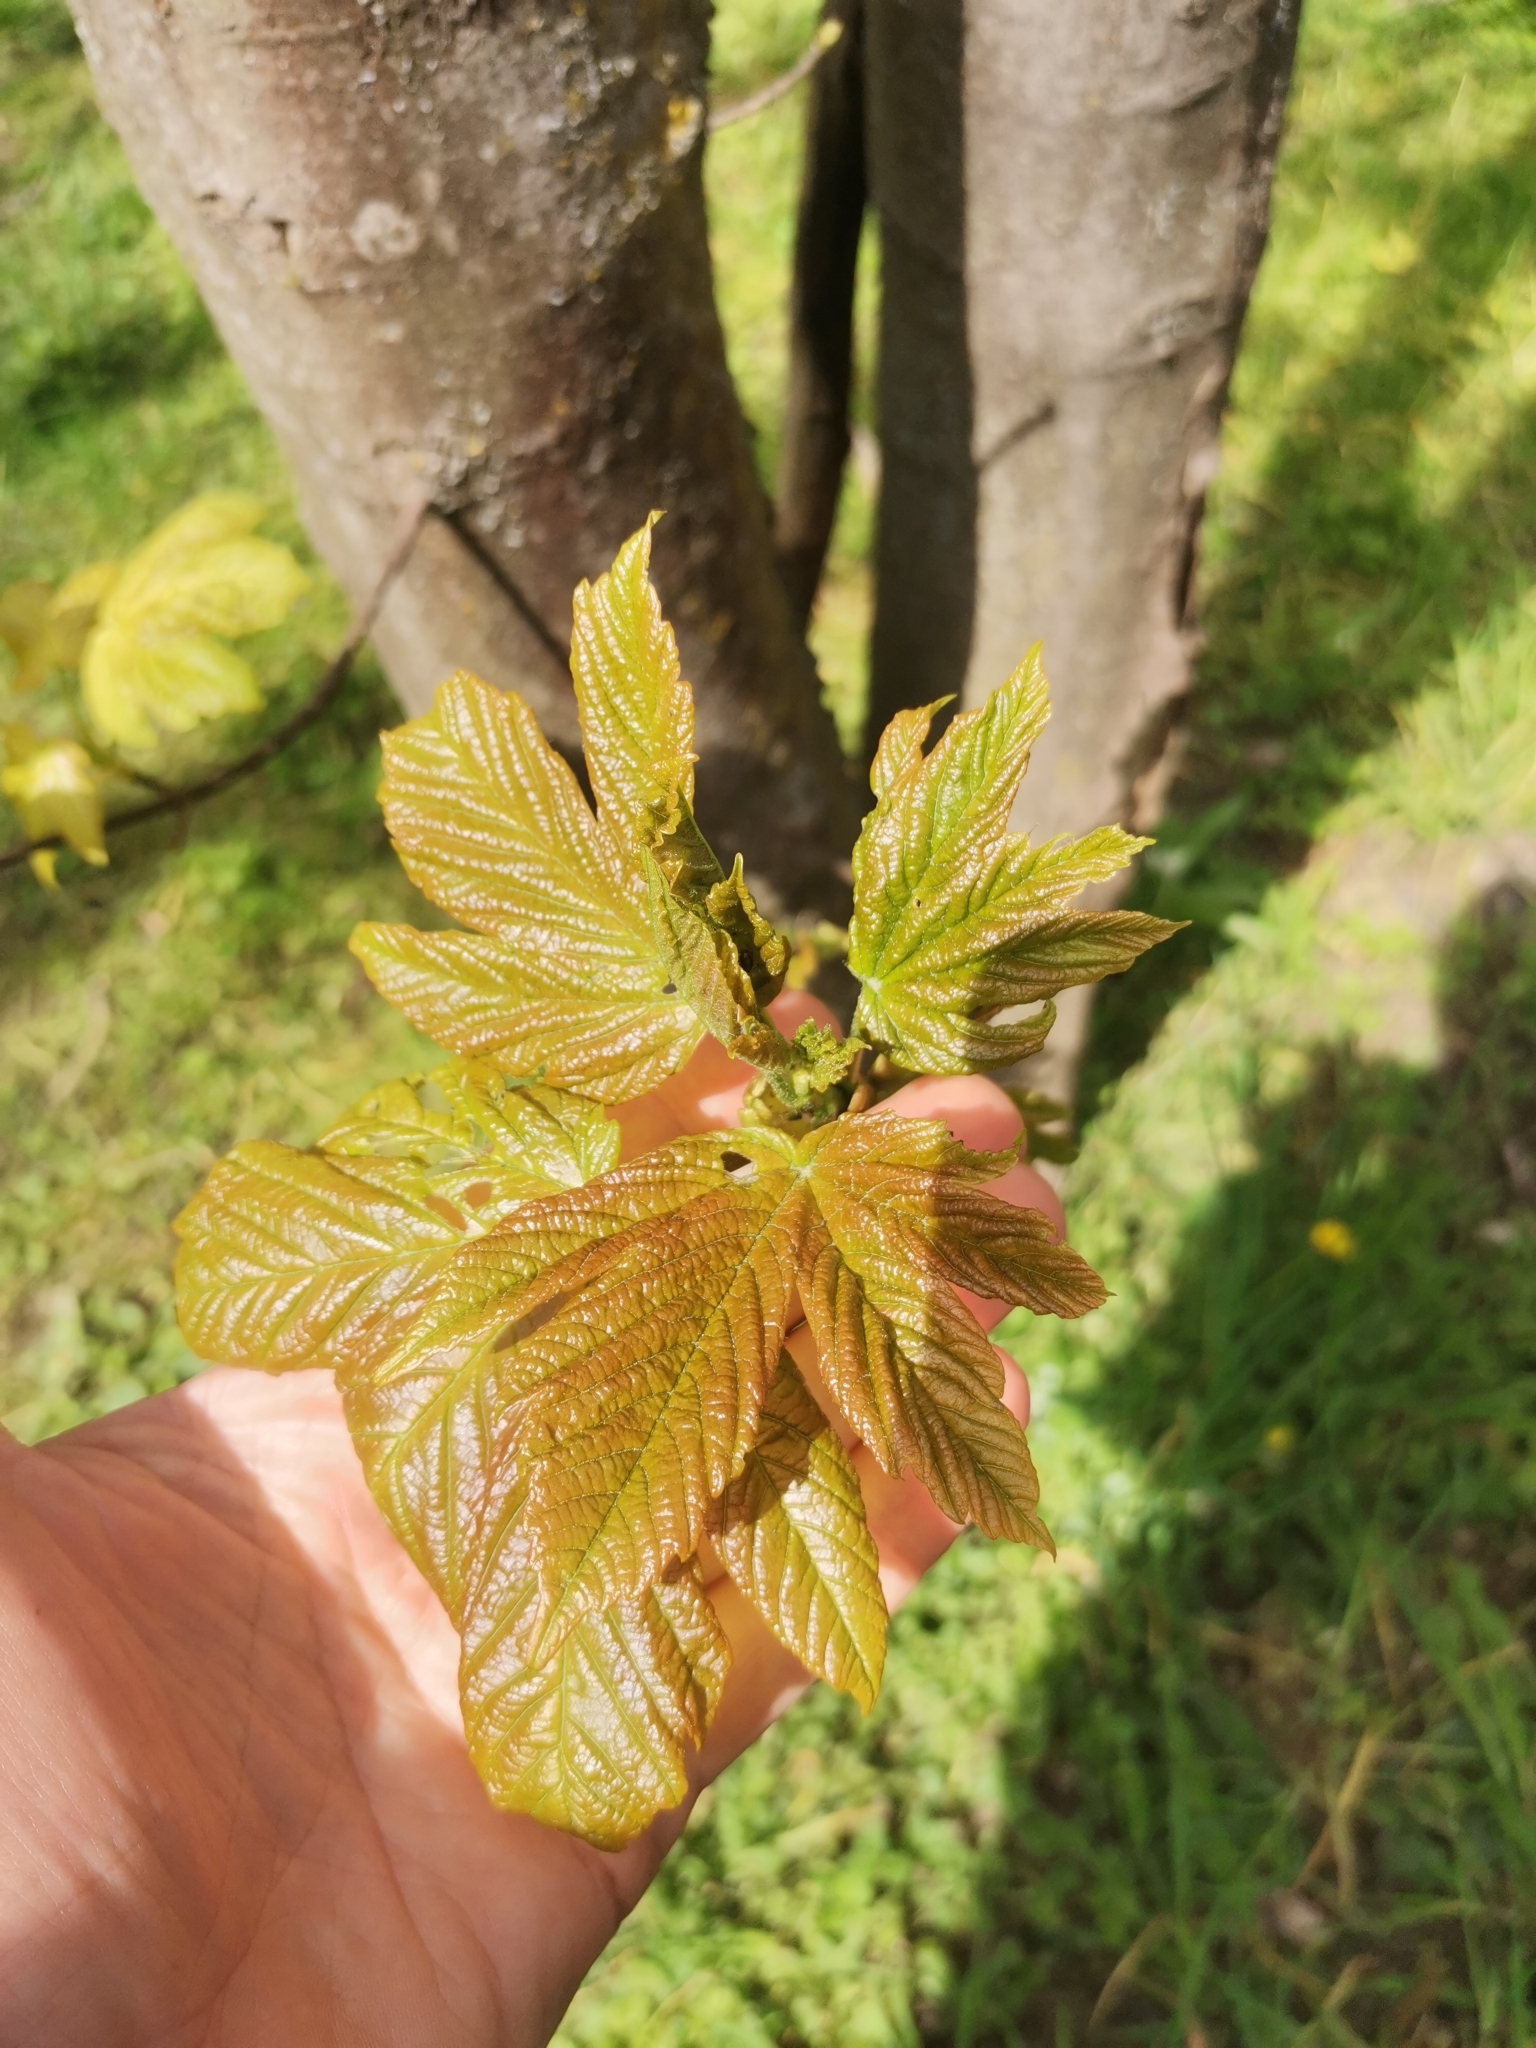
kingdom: Plantae
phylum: Tracheophyta
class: Magnoliopsida
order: Sapindales
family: Sapindaceae
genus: Acer
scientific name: Acer pseudoplatanus
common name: Sycamore
